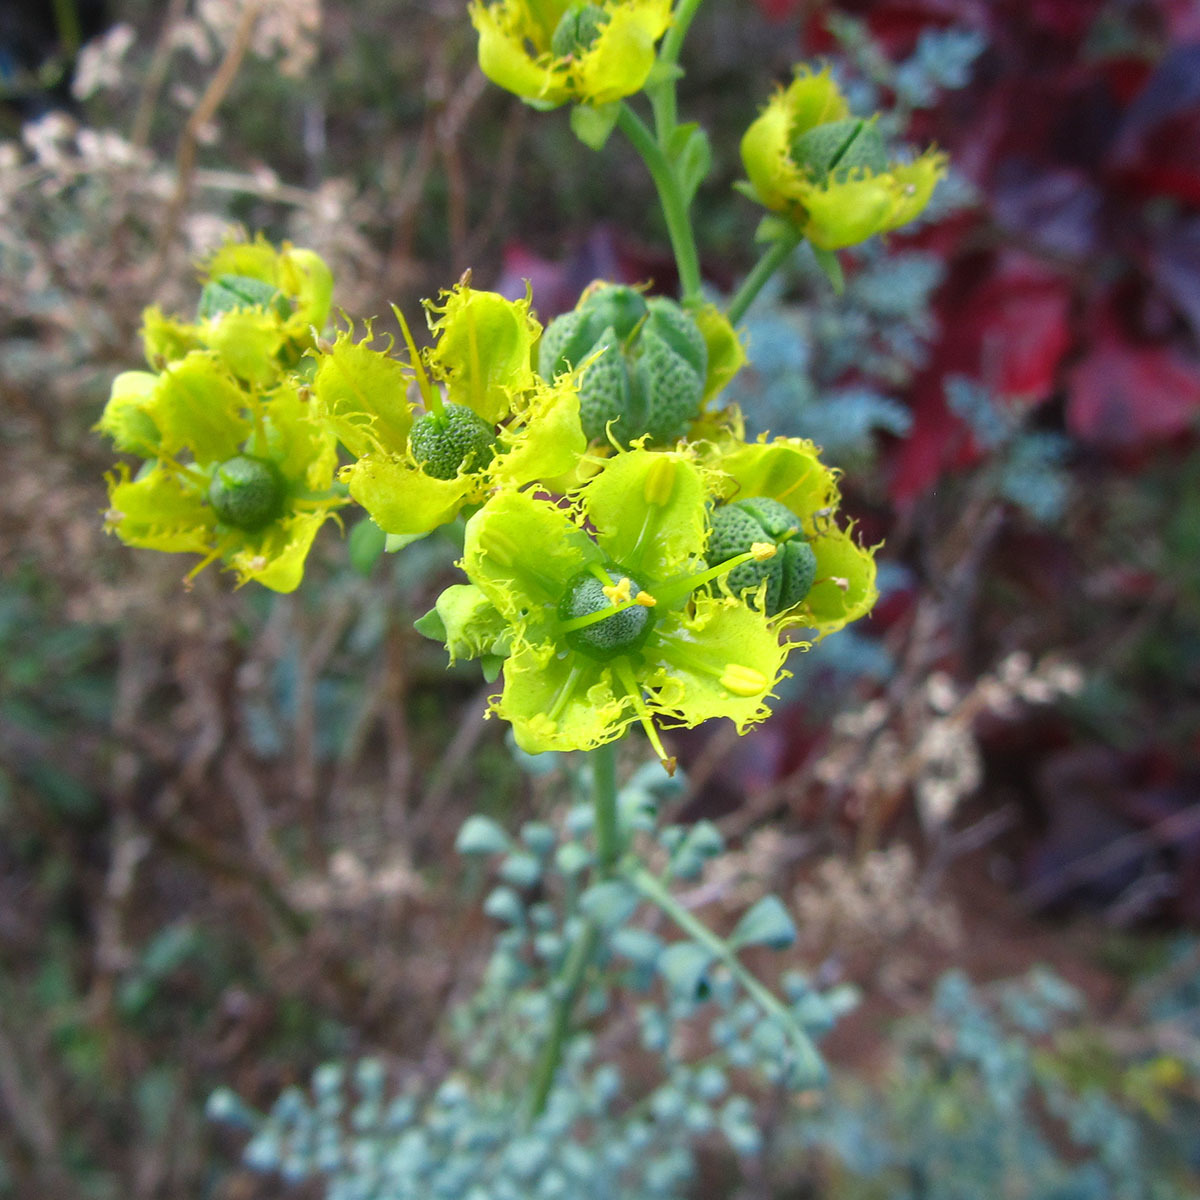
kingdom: Plantae
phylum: Tracheophyta
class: Magnoliopsida
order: Sapindales
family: Rutaceae
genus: Ruta
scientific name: Ruta chalepensis
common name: Fringed rue
